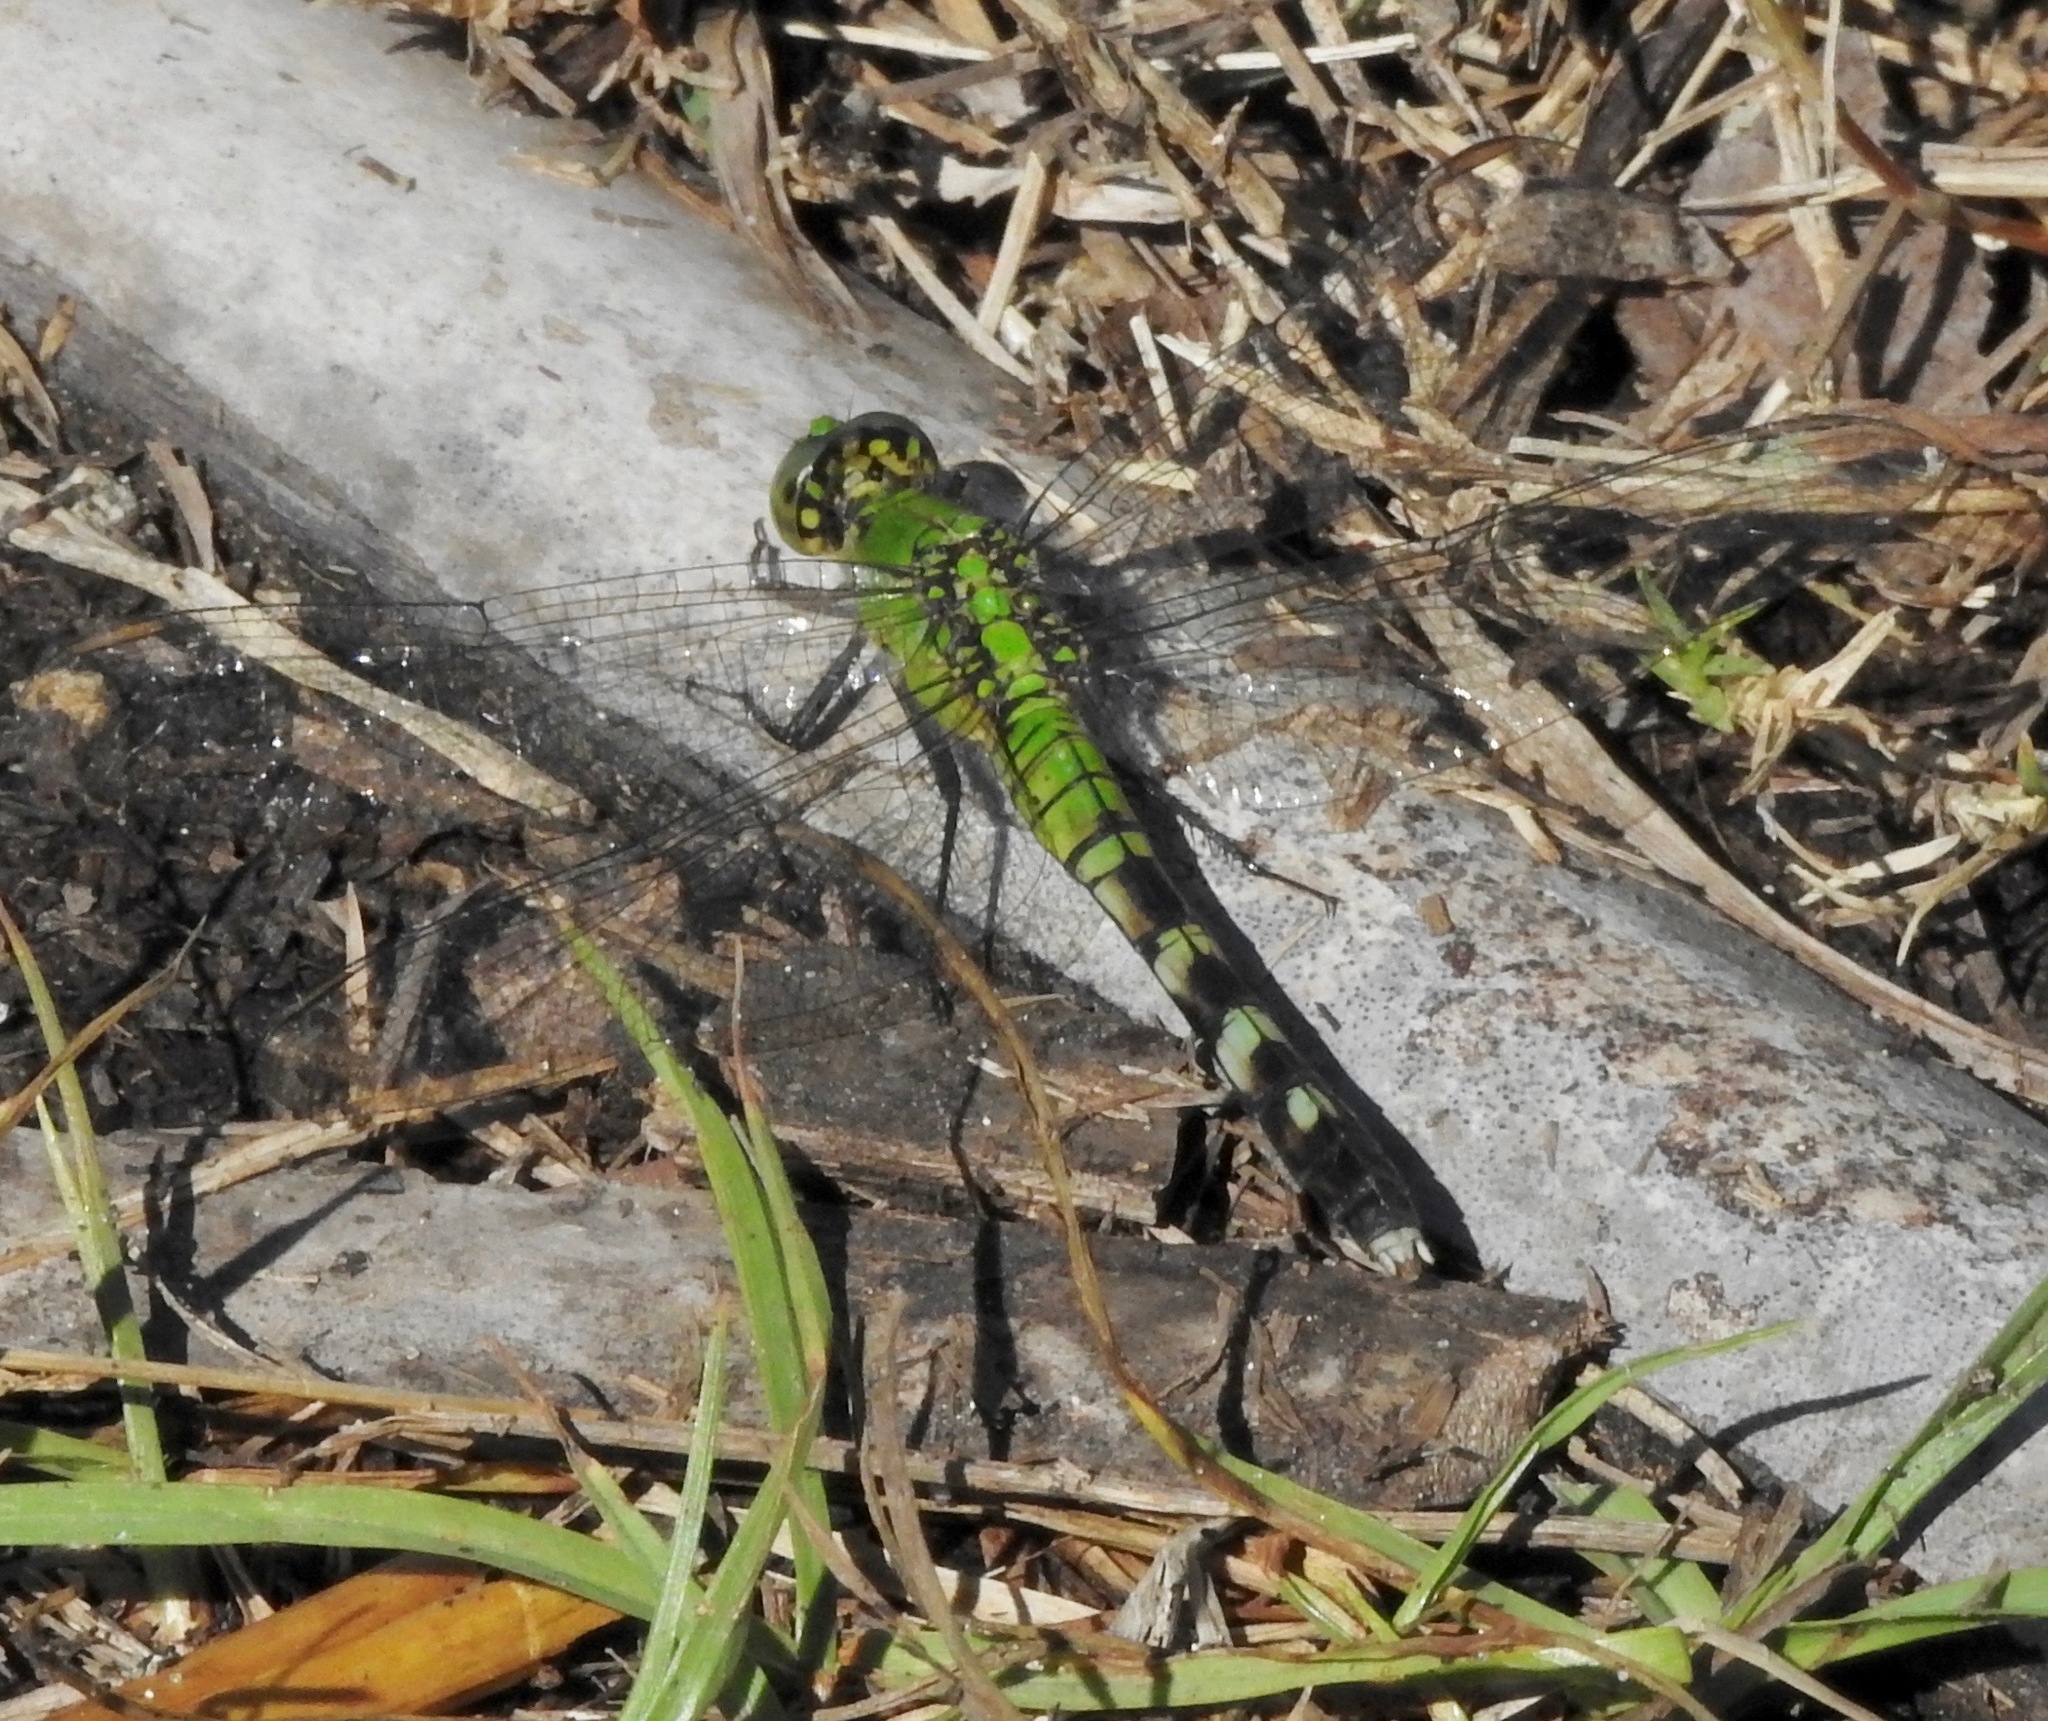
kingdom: Animalia
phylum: Arthropoda
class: Insecta
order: Odonata
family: Libellulidae
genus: Erythemis
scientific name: Erythemis simplicicollis
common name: Eastern pondhawk
